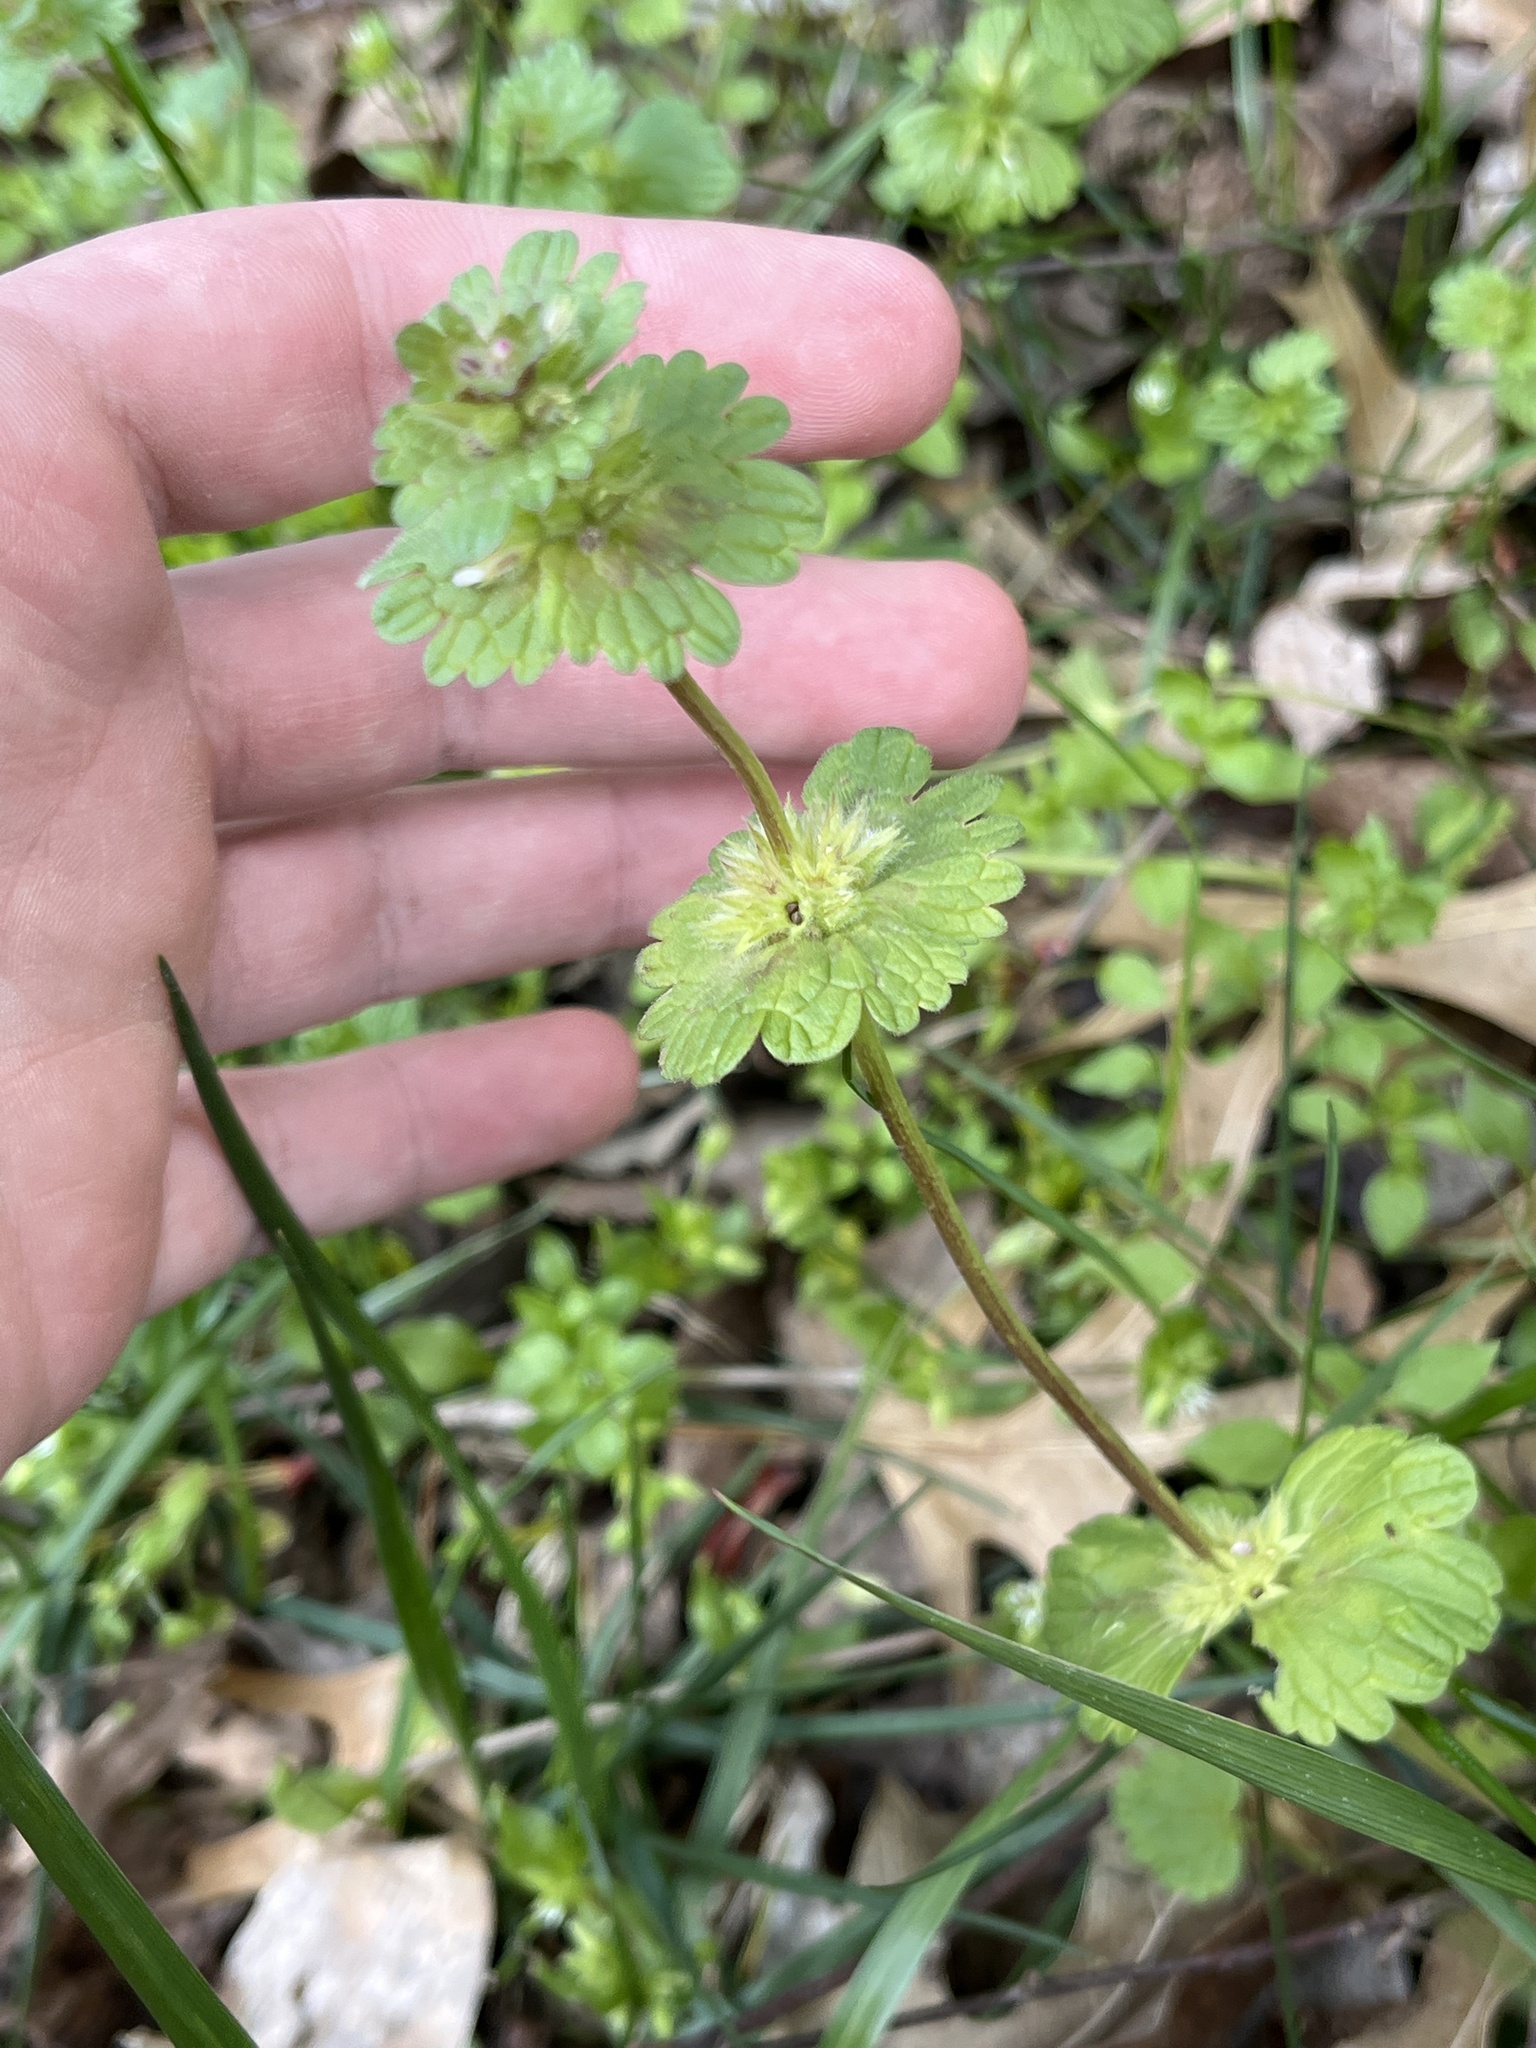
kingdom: Plantae
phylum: Tracheophyta
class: Magnoliopsida
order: Lamiales
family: Lamiaceae
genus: Lamium
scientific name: Lamium amplexicaule
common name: Henbit dead-nettle
